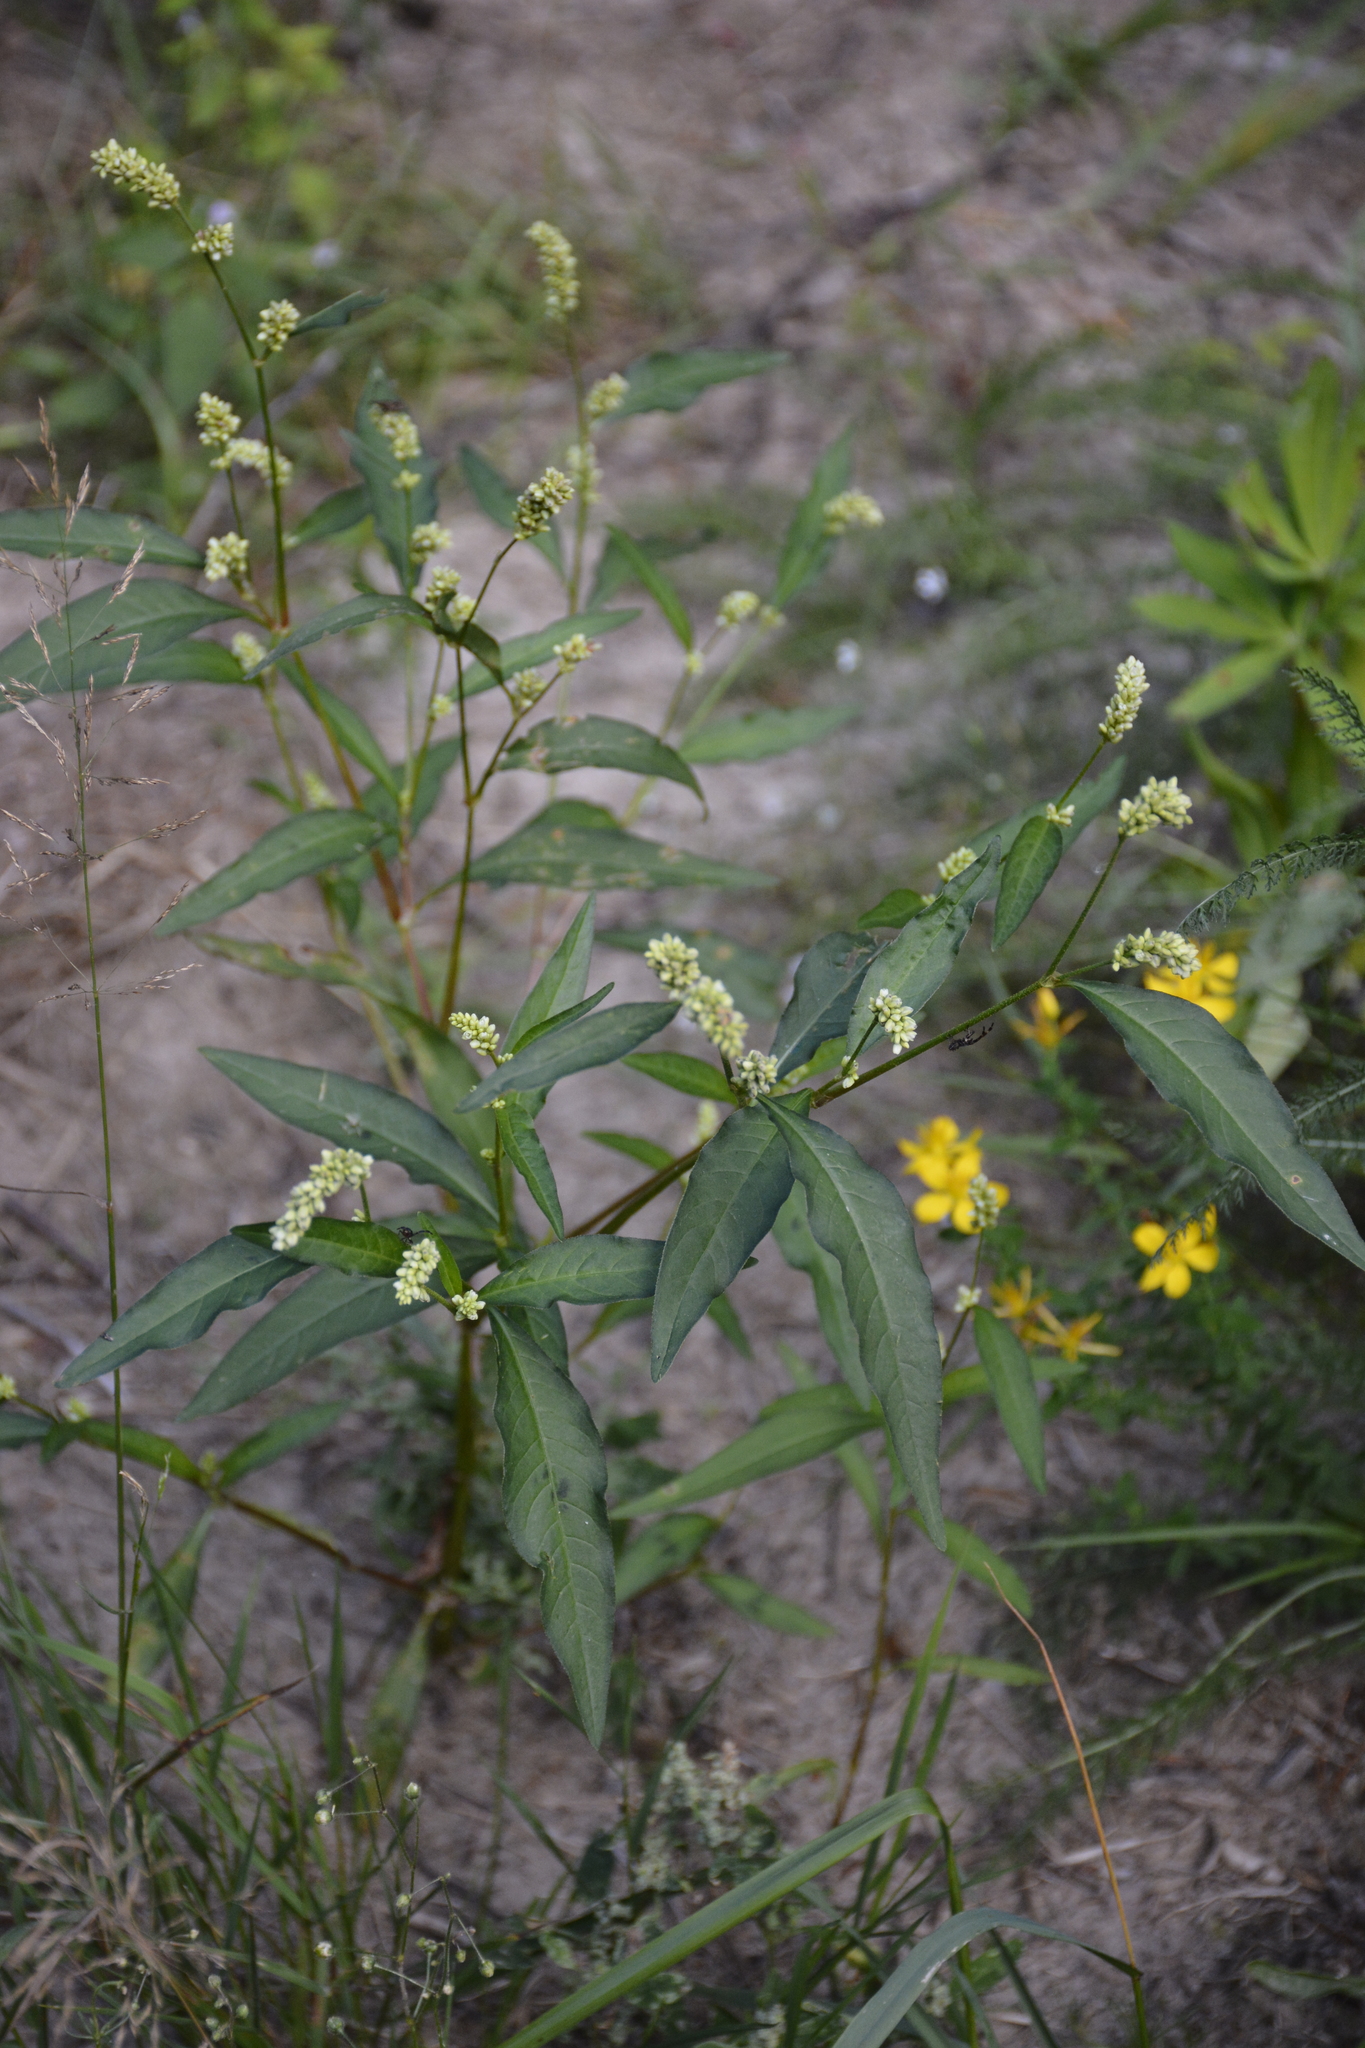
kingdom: Plantae
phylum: Tracheophyta
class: Magnoliopsida
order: Caryophyllales
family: Polygonaceae
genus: Persicaria
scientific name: Persicaria lapathifolia
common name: Curlytop knotweed
